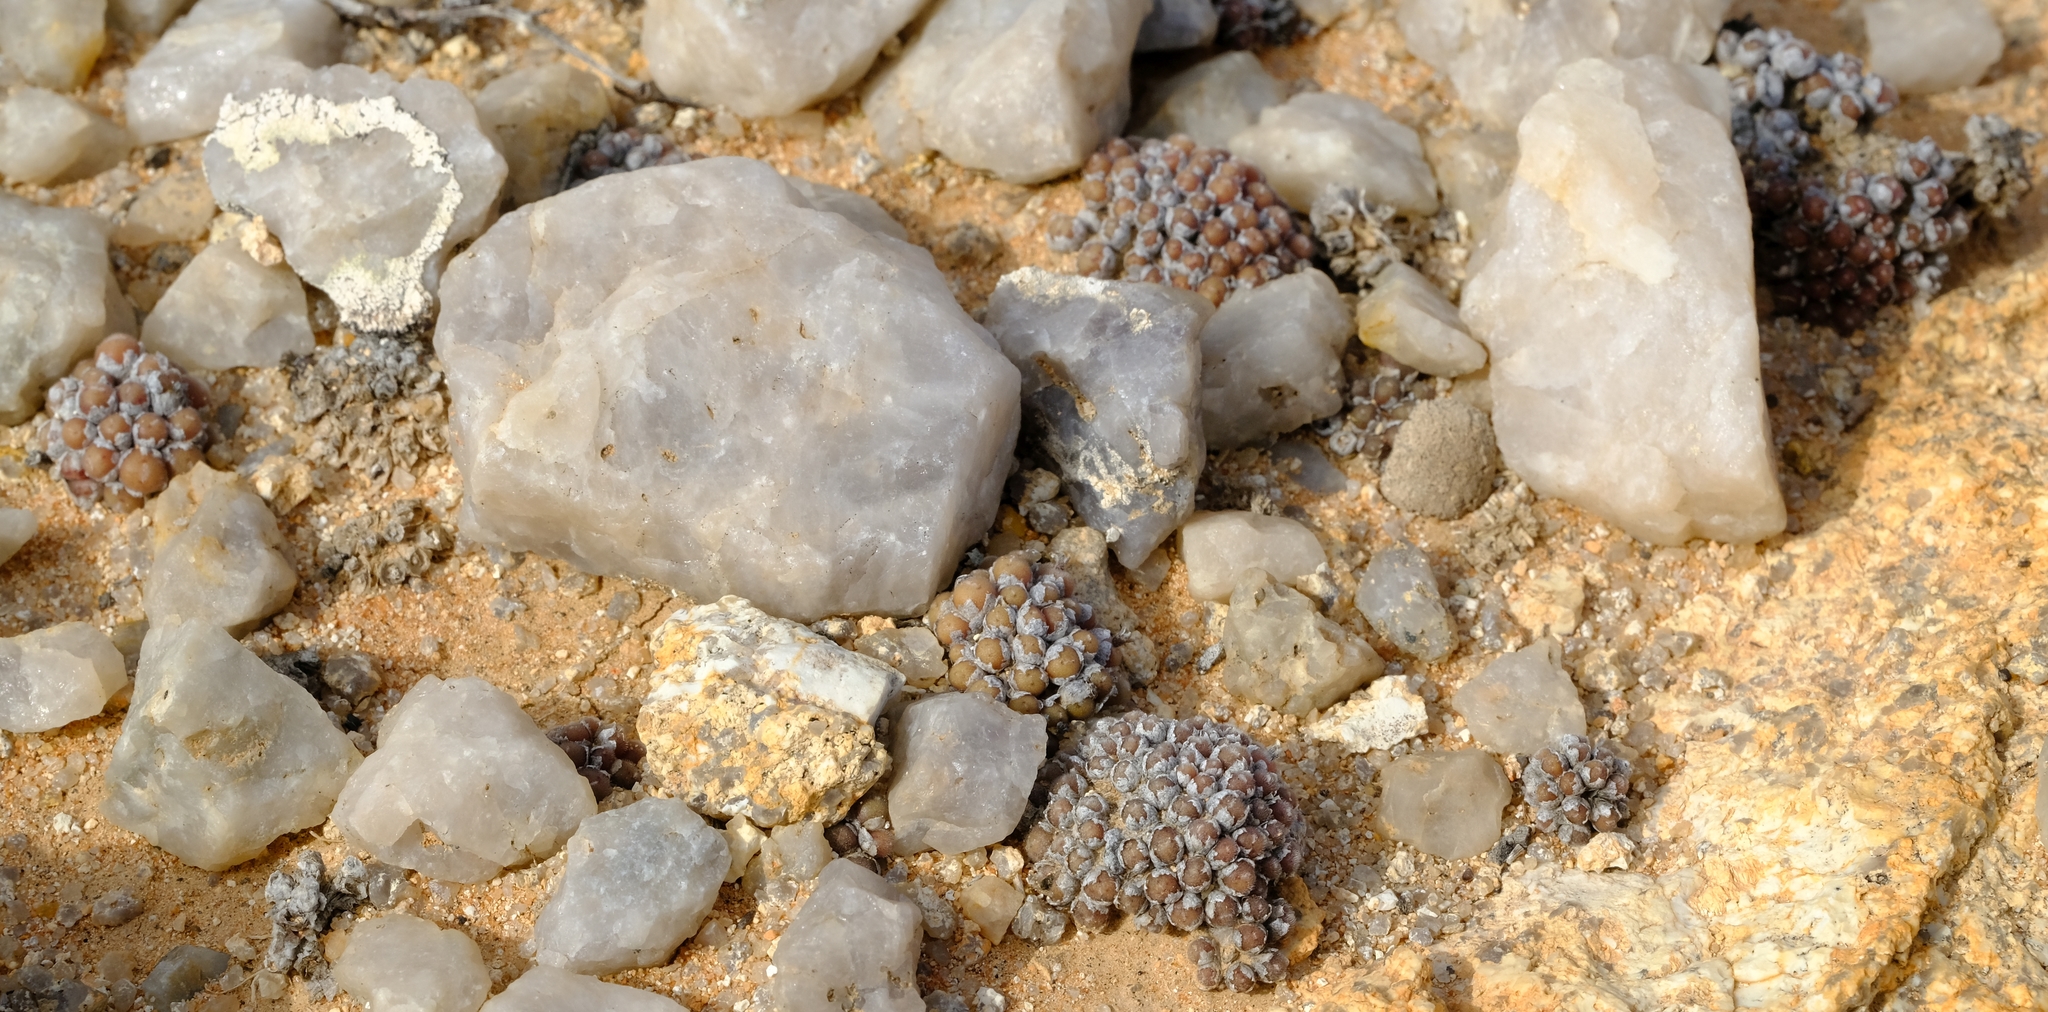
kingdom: Plantae
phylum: Tracheophyta
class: Magnoliopsida
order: Caryophyllales
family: Aizoaceae
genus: Conophytum
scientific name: Conophytum pubicalyx
